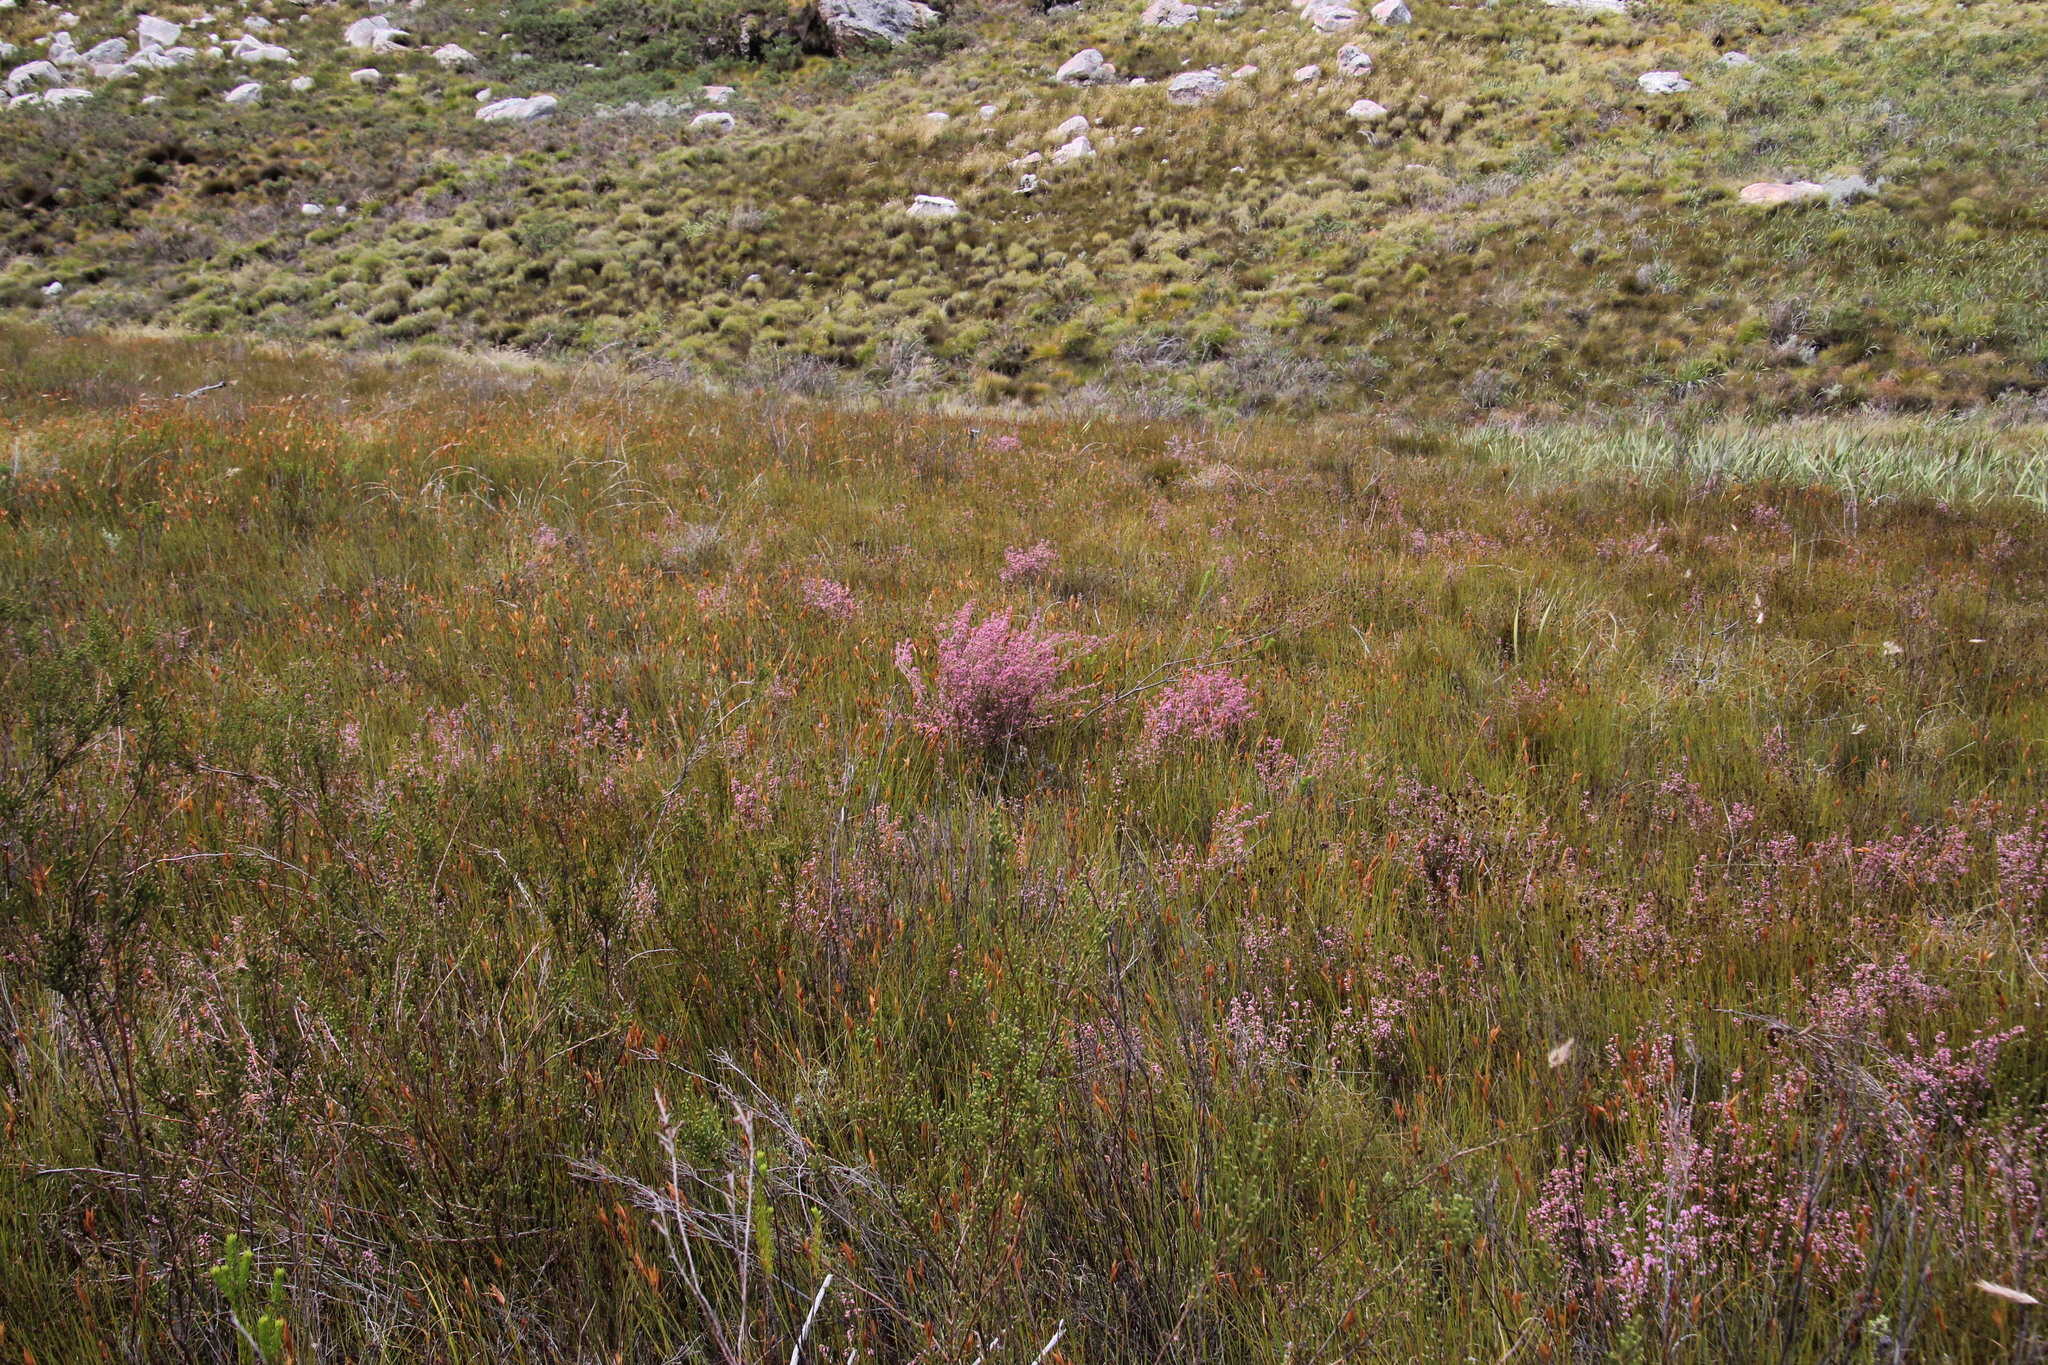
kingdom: Plantae
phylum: Tracheophyta
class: Magnoliopsida
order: Ericales
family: Ericaceae
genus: Erica
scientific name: Erica brevifolia
